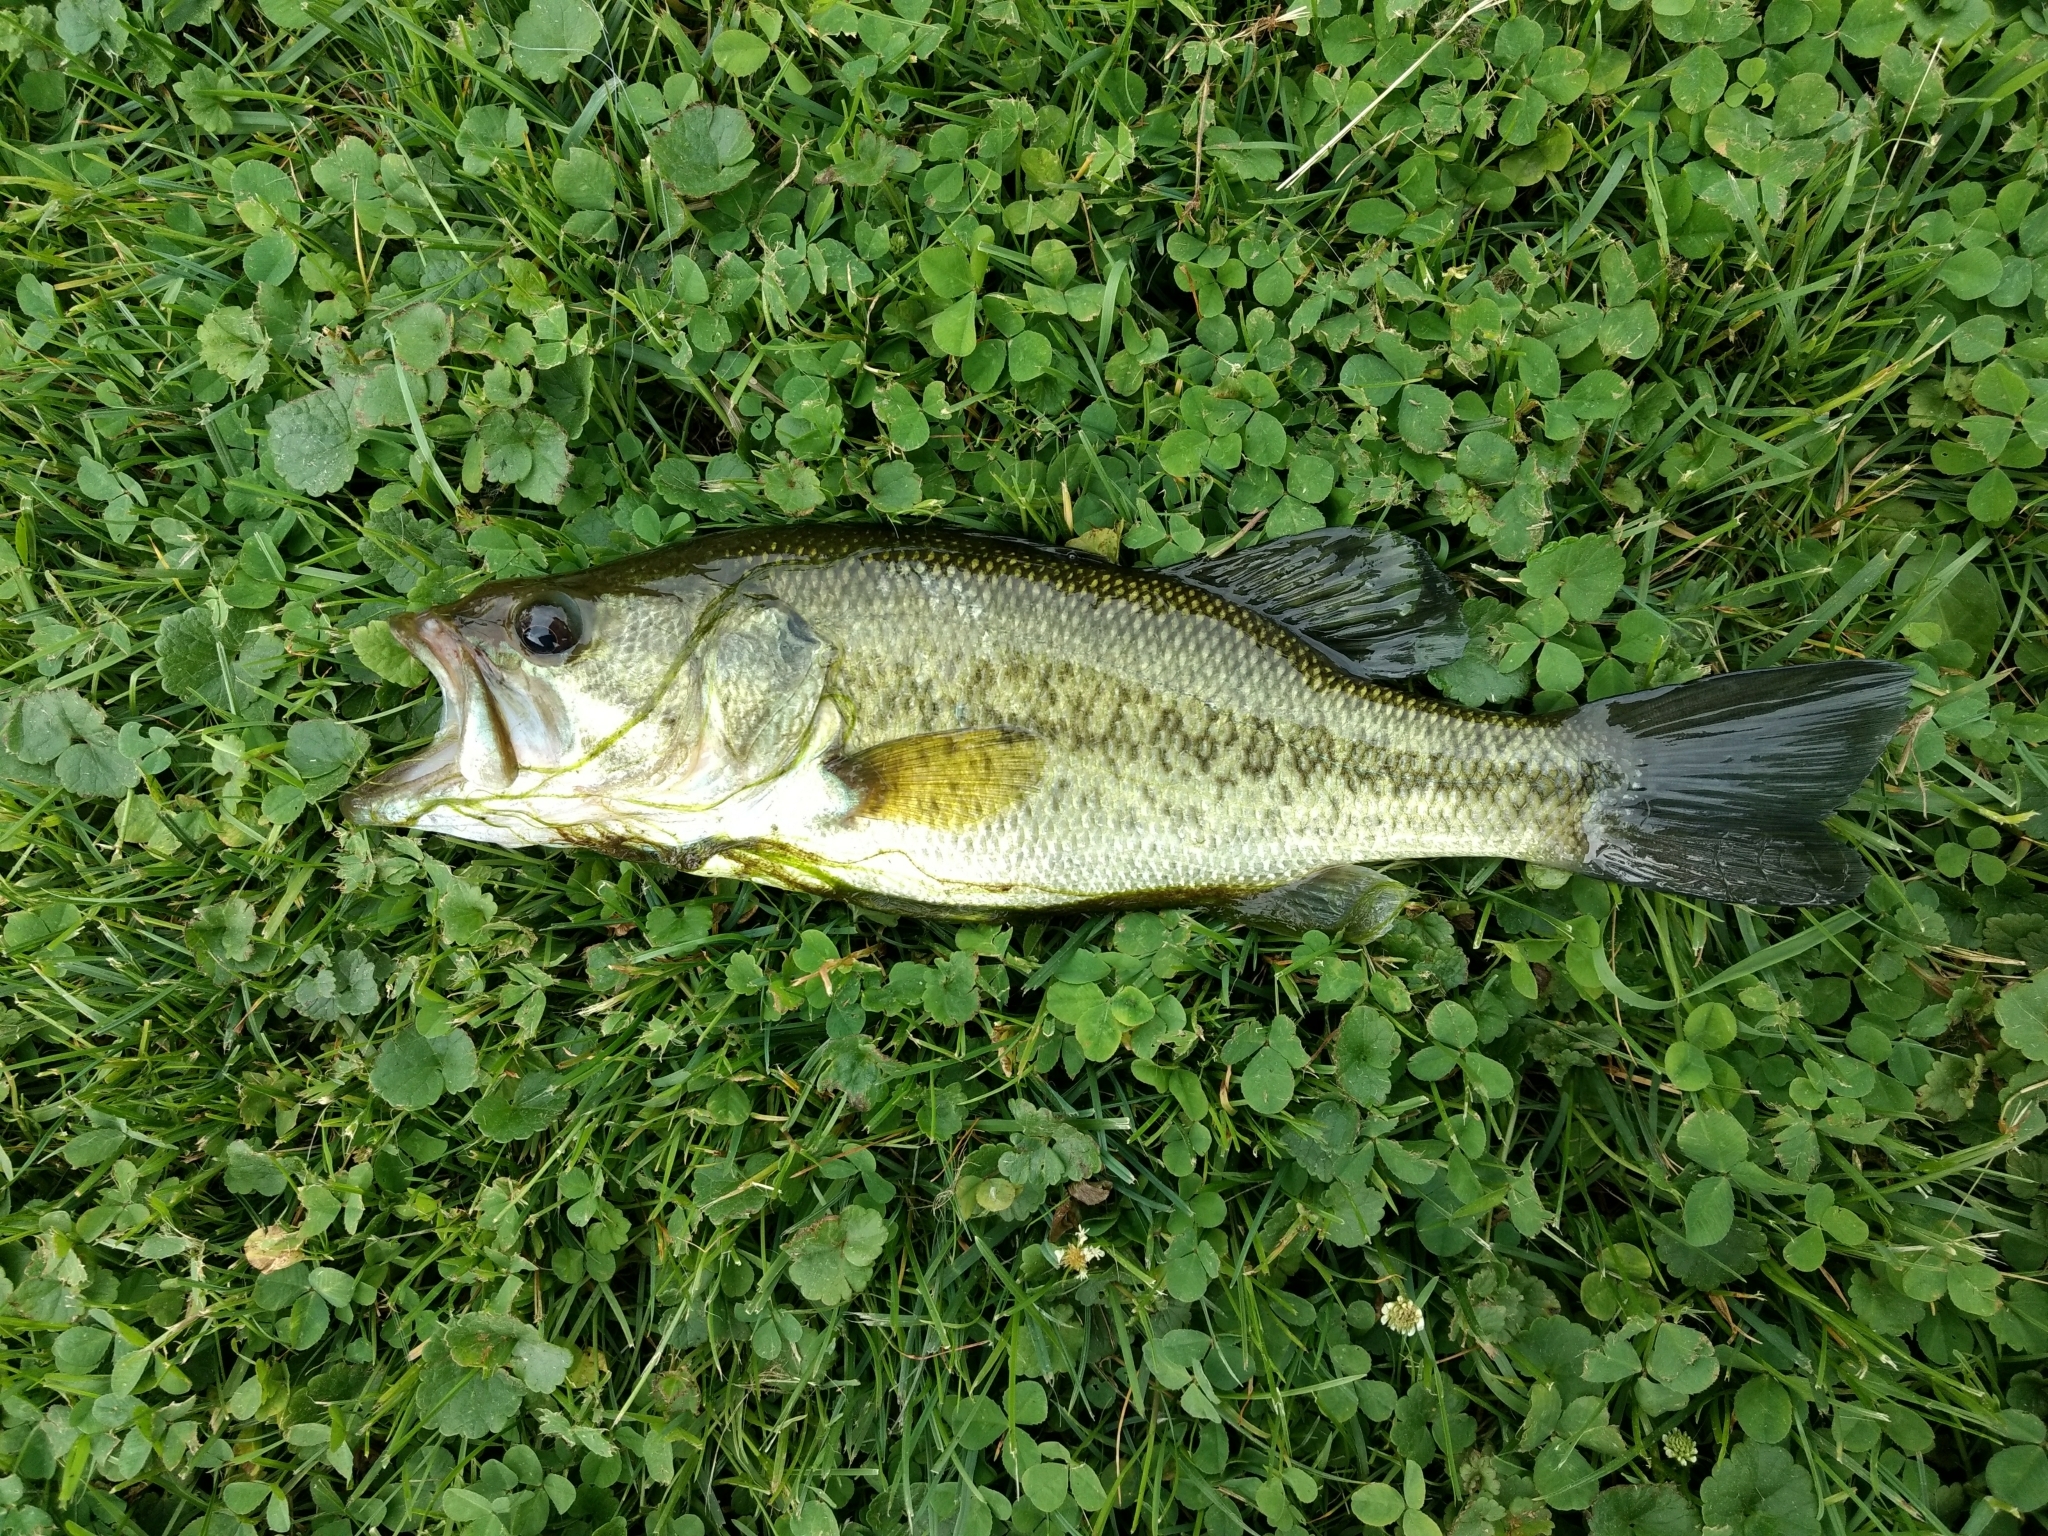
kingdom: Animalia
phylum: Chordata
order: Perciformes
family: Centrarchidae
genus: Micropterus
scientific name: Micropterus
